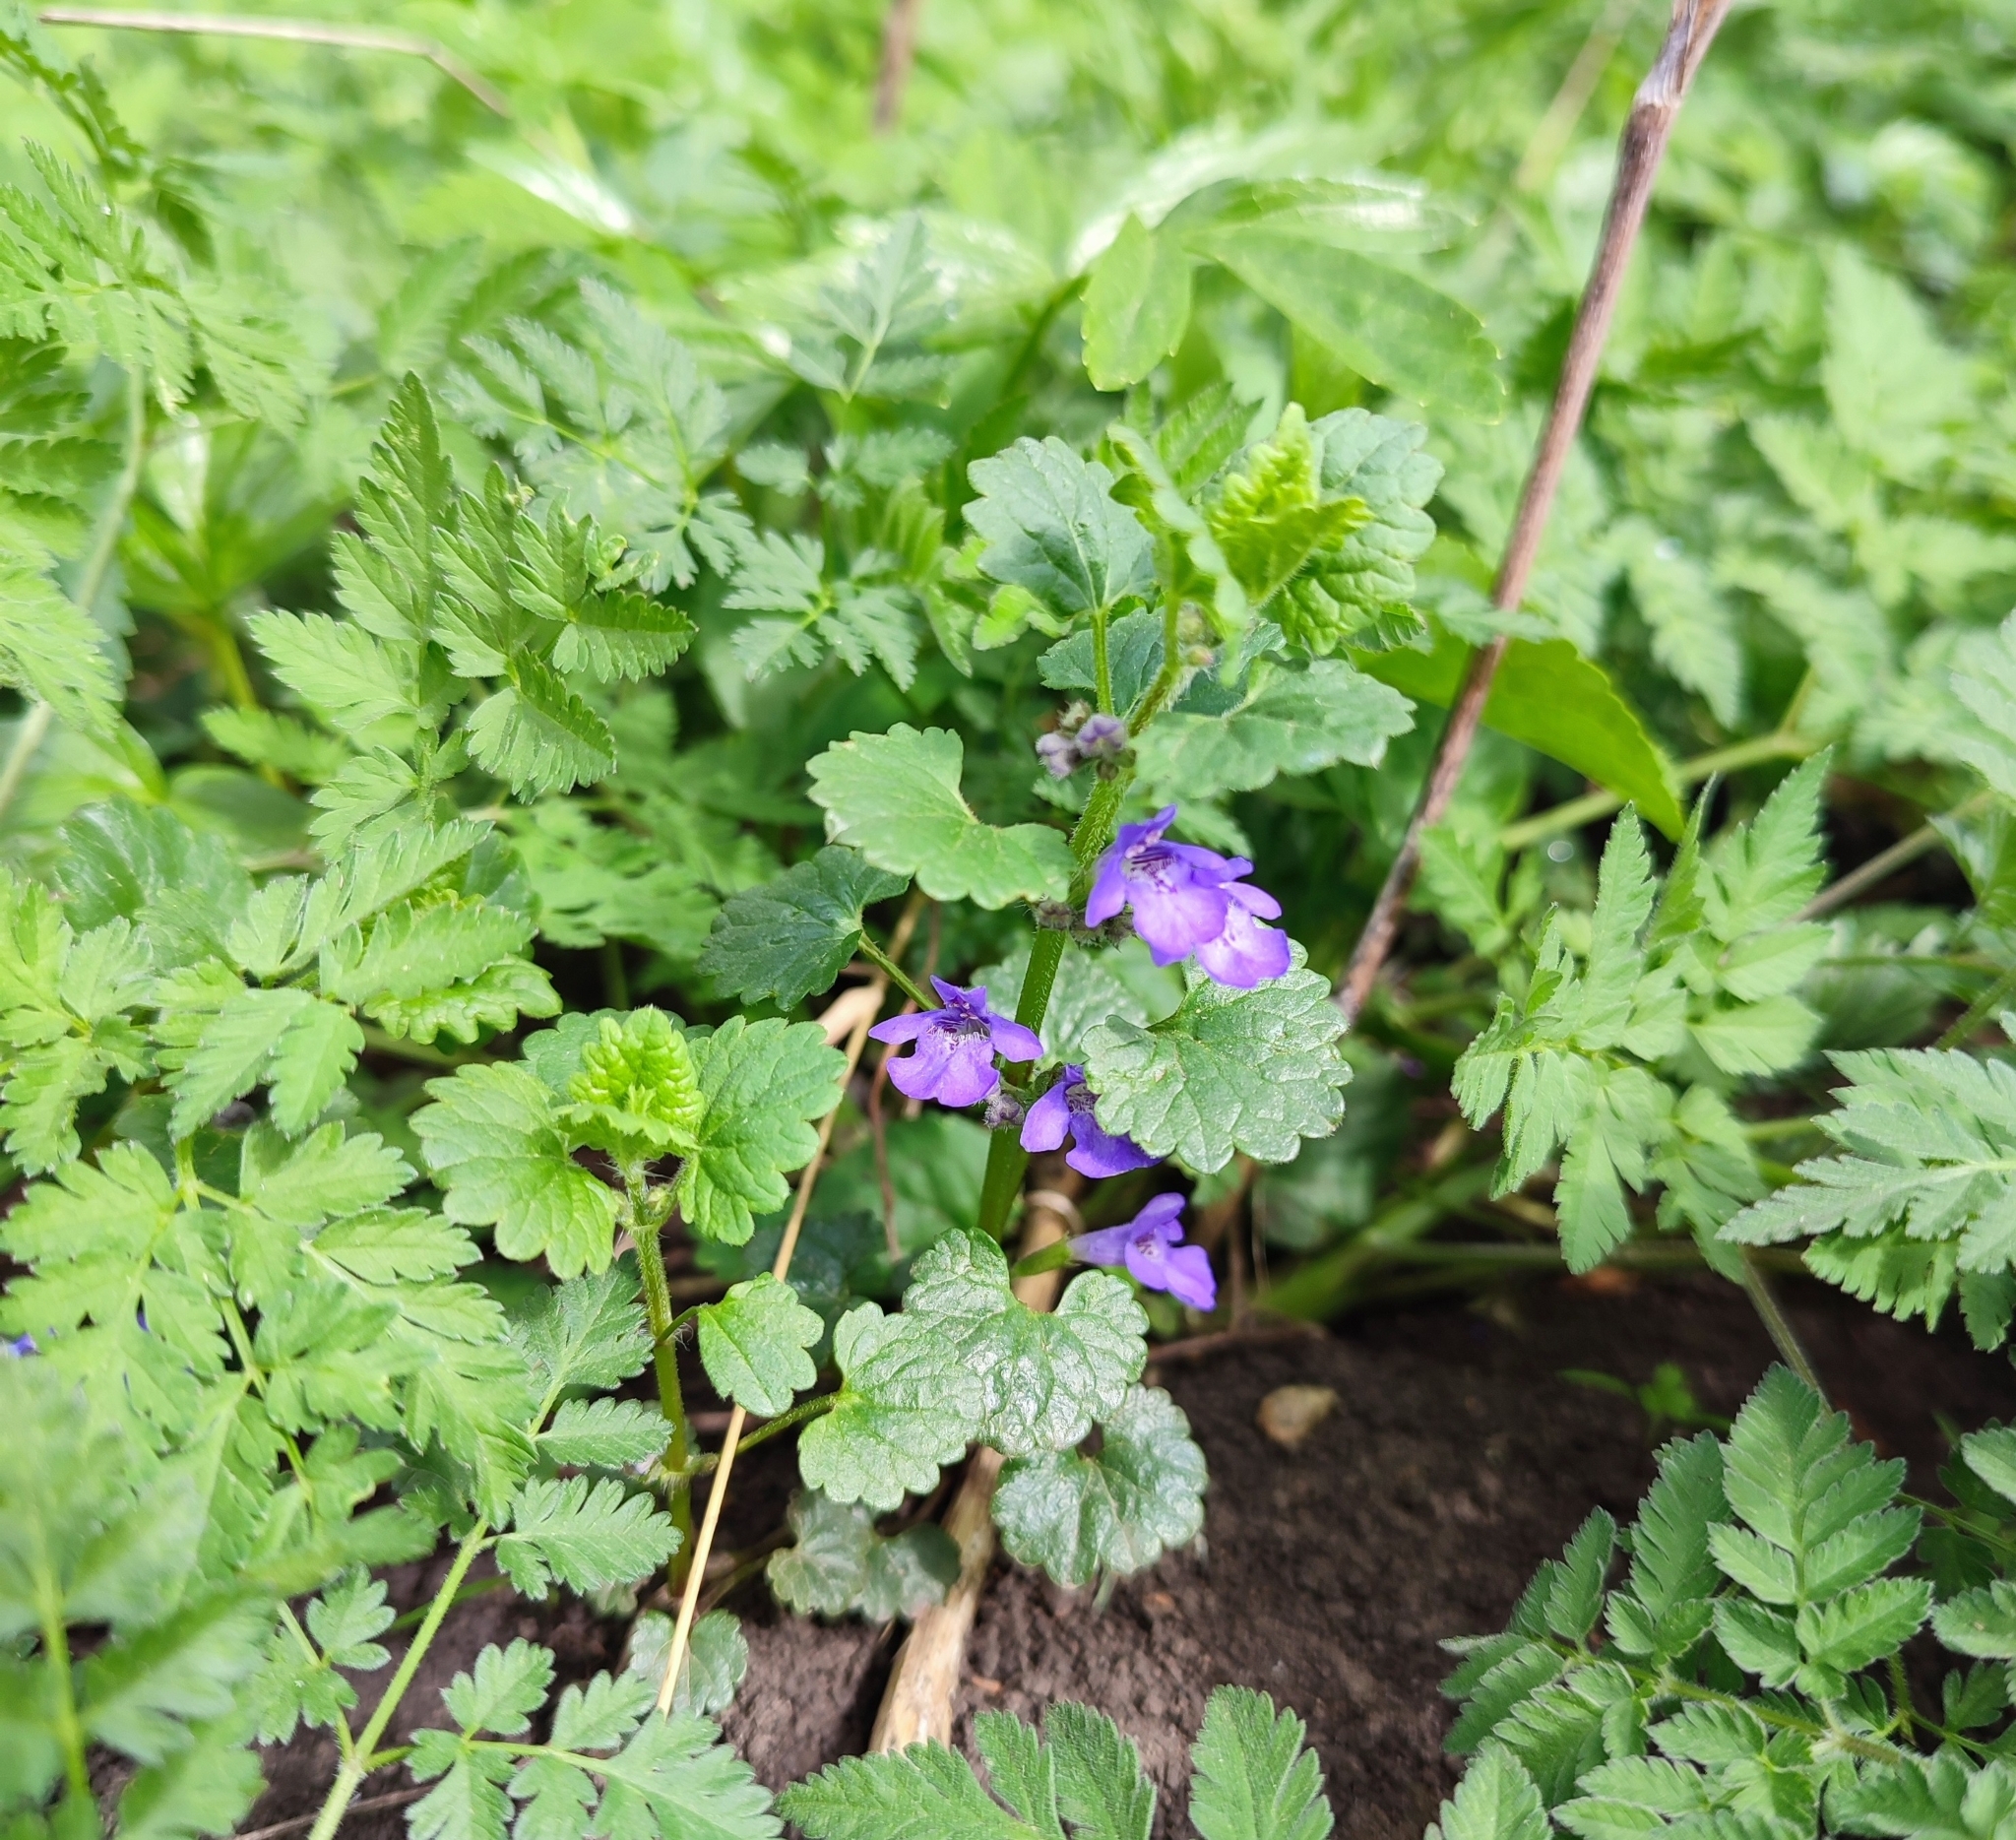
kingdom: Plantae
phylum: Tracheophyta
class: Magnoliopsida
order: Lamiales
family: Lamiaceae
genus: Glechoma
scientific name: Glechoma hederacea
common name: Ground ivy
